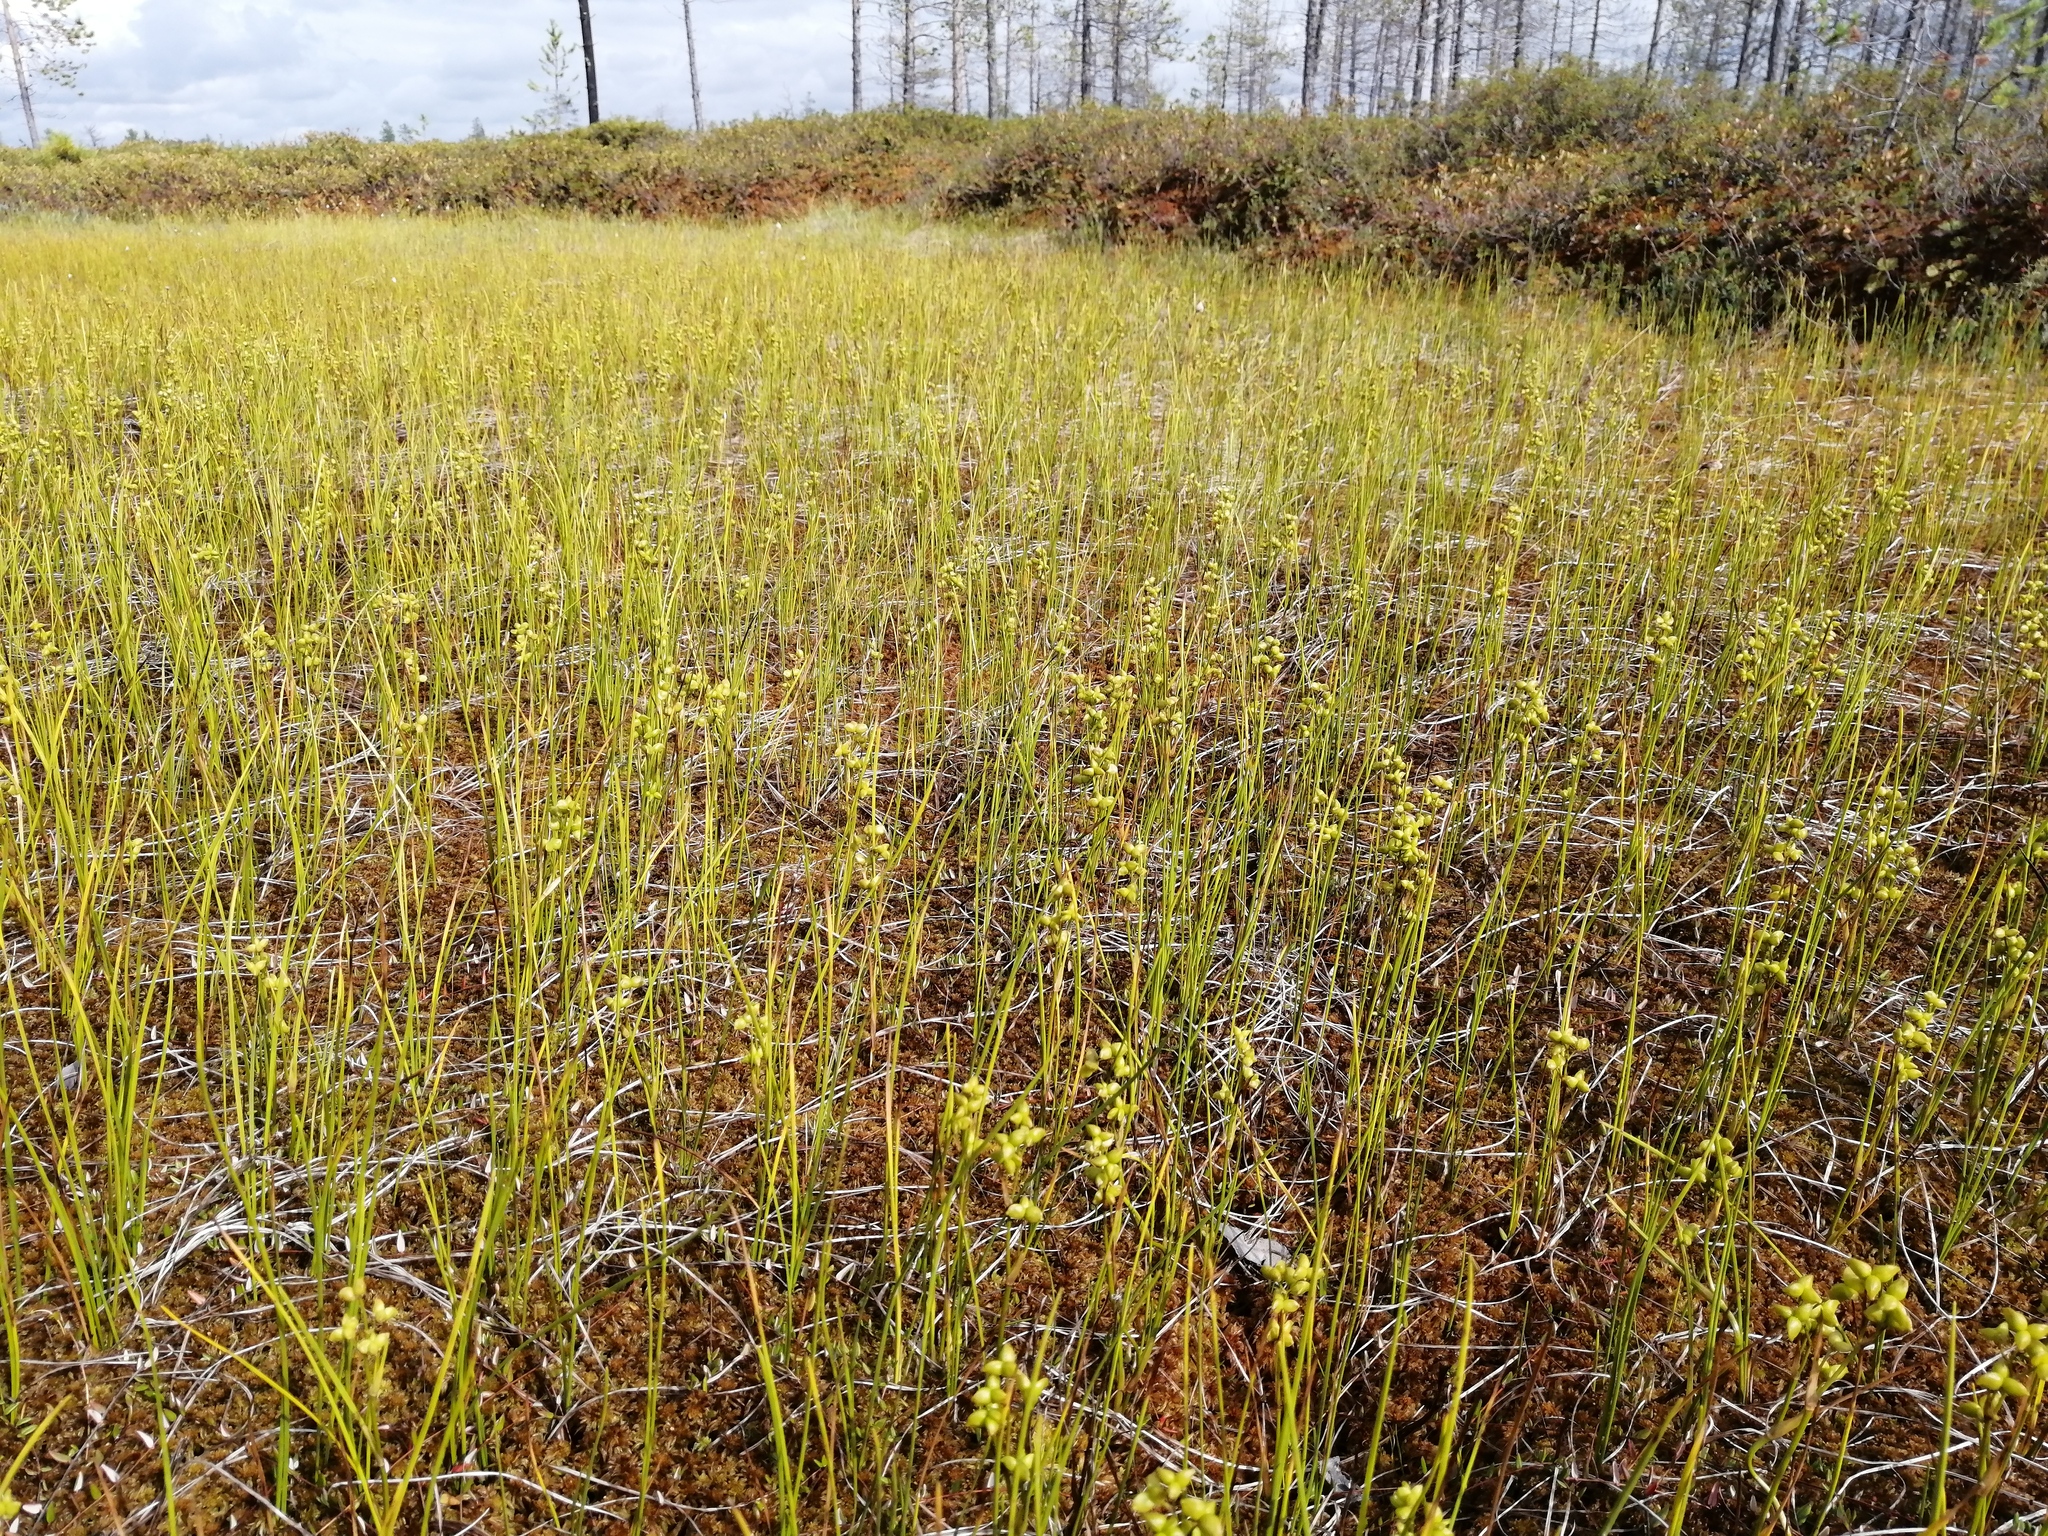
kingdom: Plantae
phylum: Tracheophyta
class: Liliopsida
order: Alismatales
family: Scheuchzeriaceae
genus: Scheuchzeria
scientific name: Scheuchzeria palustris
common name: Rannoch-rush
